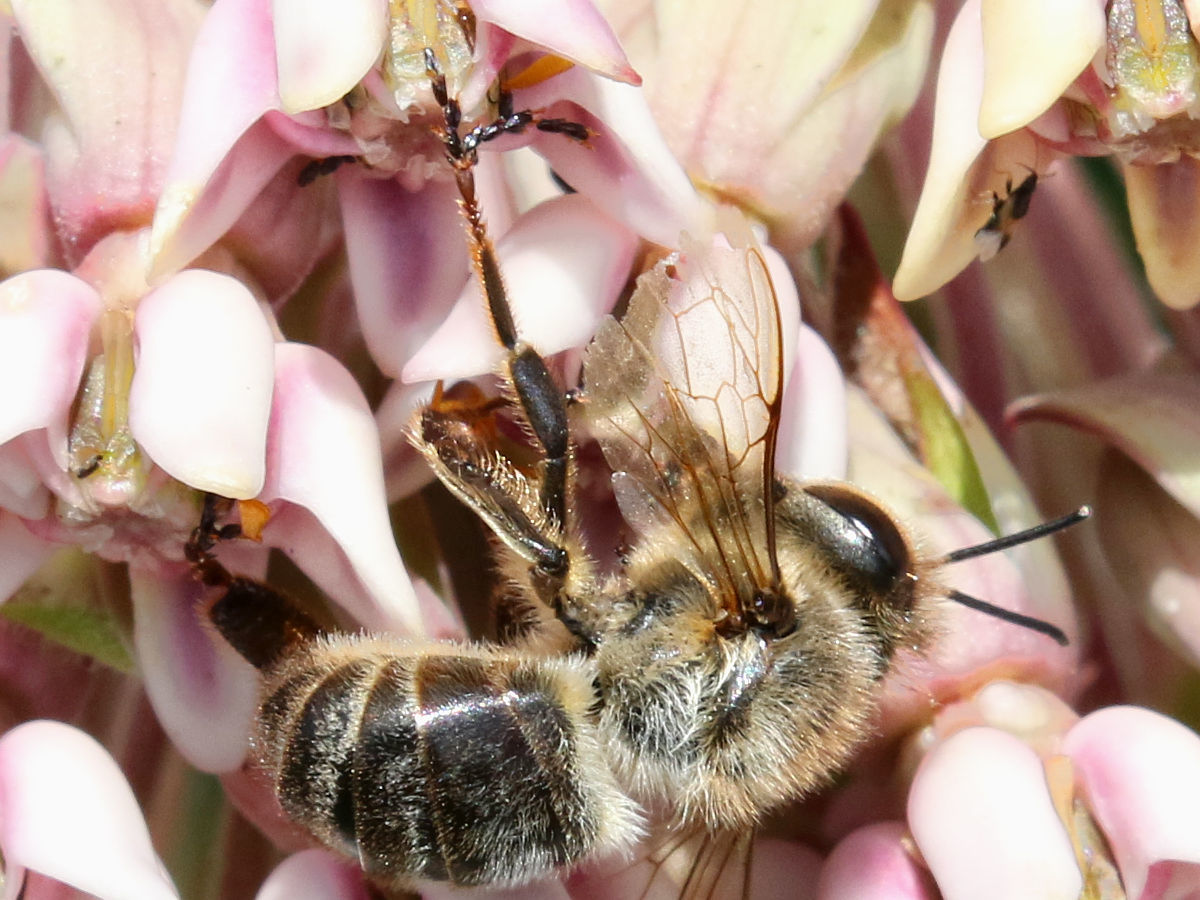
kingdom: Animalia
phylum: Arthropoda
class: Insecta
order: Hymenoptera
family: Apidae
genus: Apis
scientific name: Apis mellifera
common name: Honey bee
